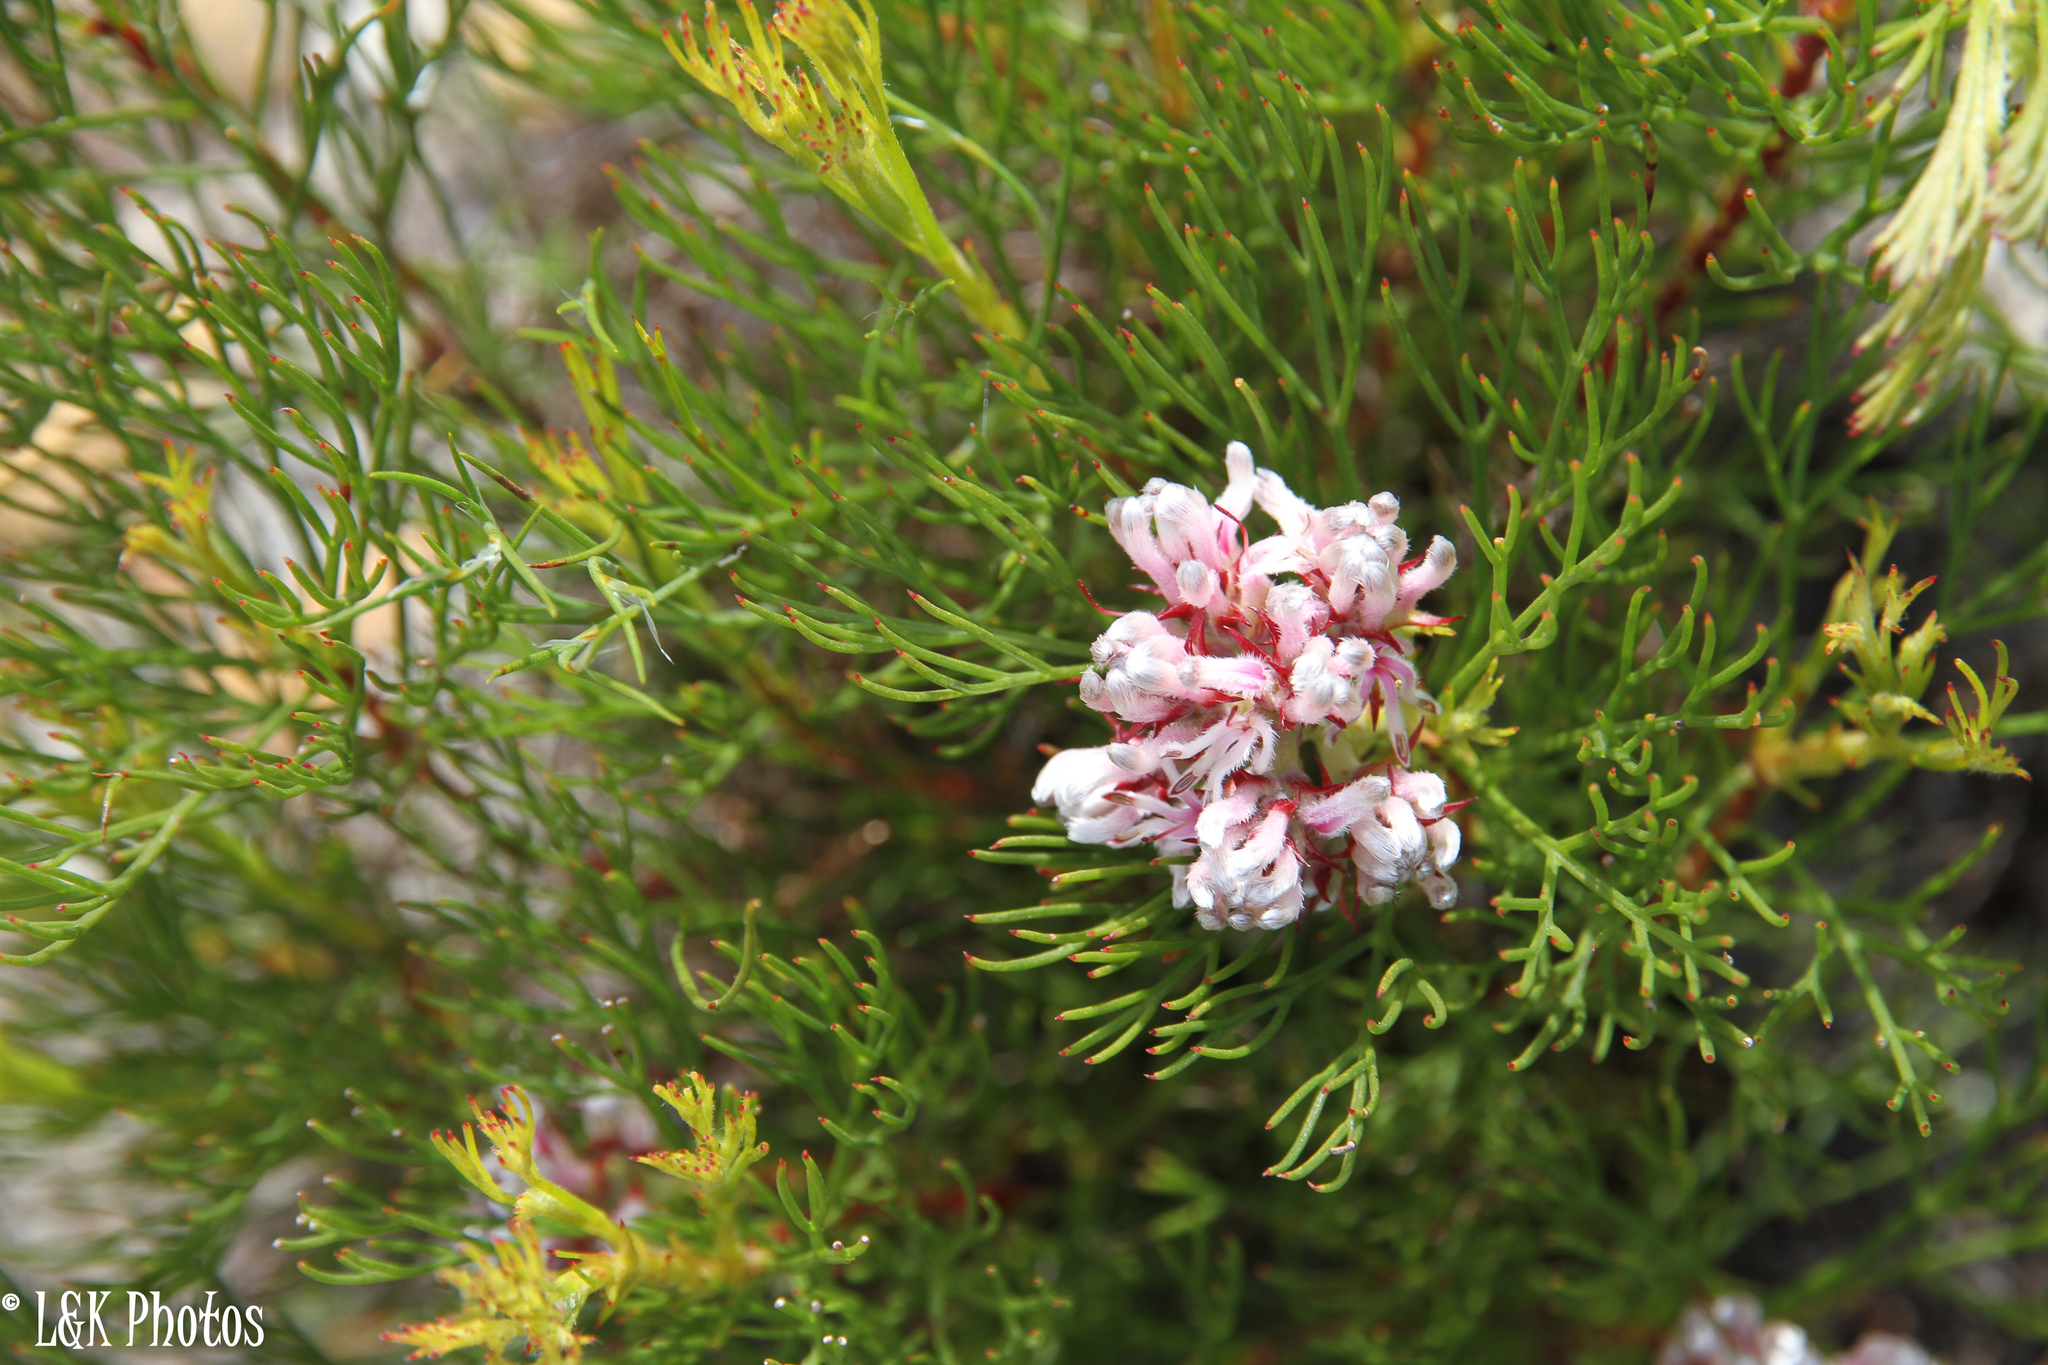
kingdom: Plantae
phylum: Tracheophyta
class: Magnoliopsida
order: Proteales
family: Proteaceae
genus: Serruria
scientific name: Serruria rubricaulis
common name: Red-stem spiderhead
